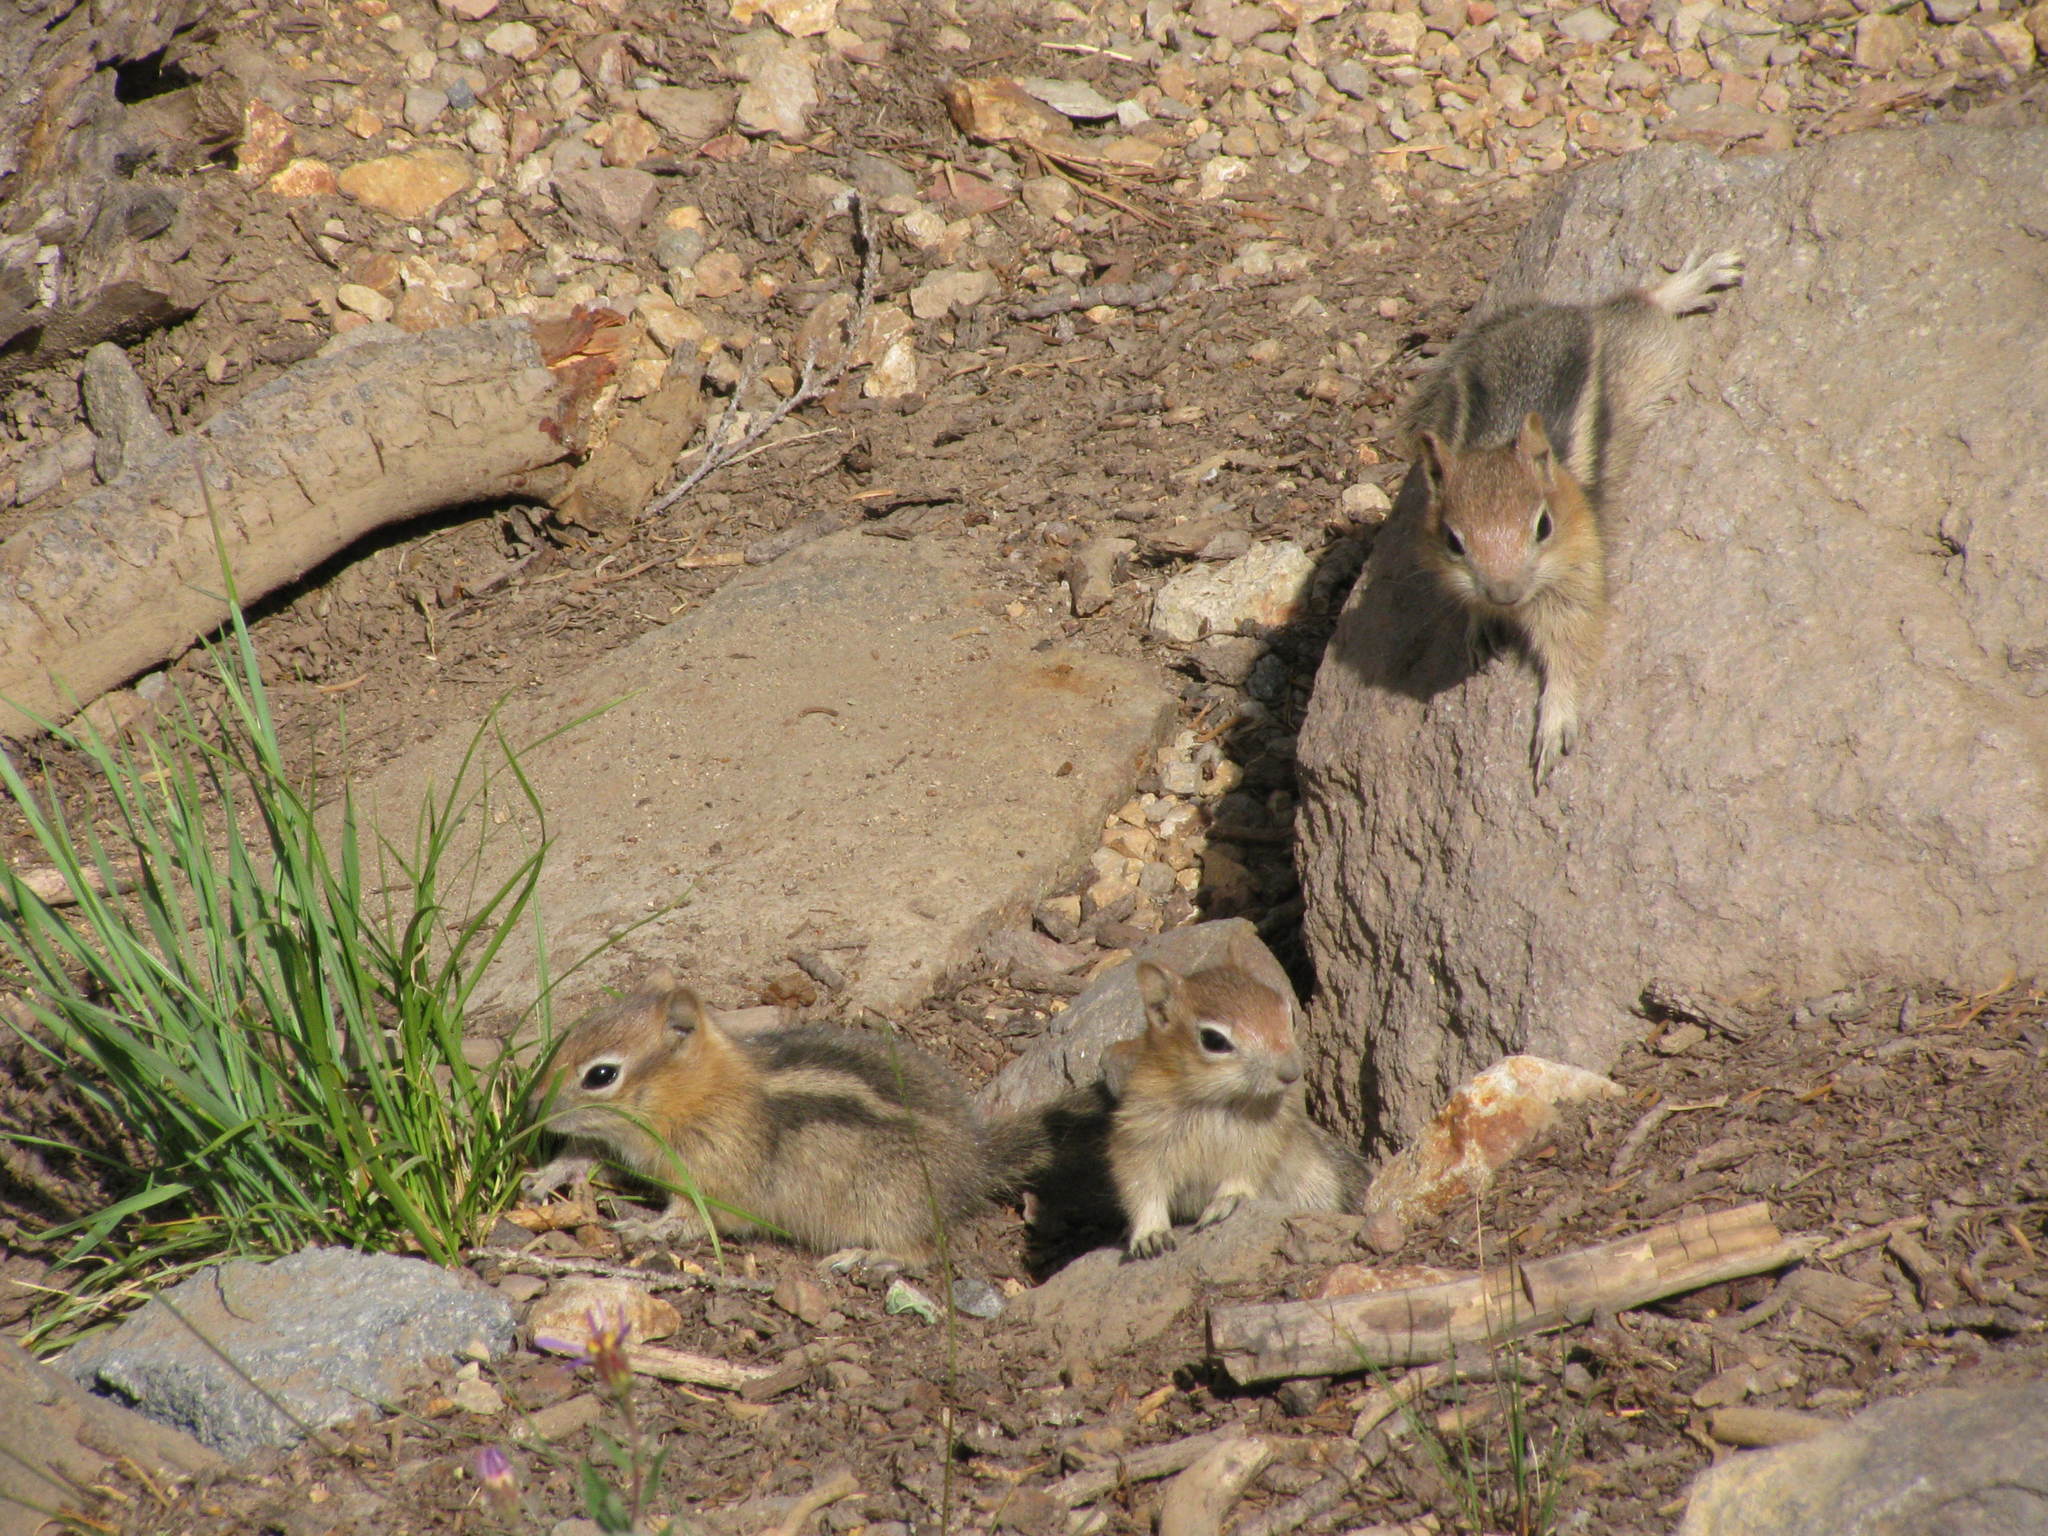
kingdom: Animalia
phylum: Chordata
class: Mammalia
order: Rodentia
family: Sciuridae
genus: Callospermophilus
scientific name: Callospermophilus lateralis
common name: Golden-mantled ground squirrel
